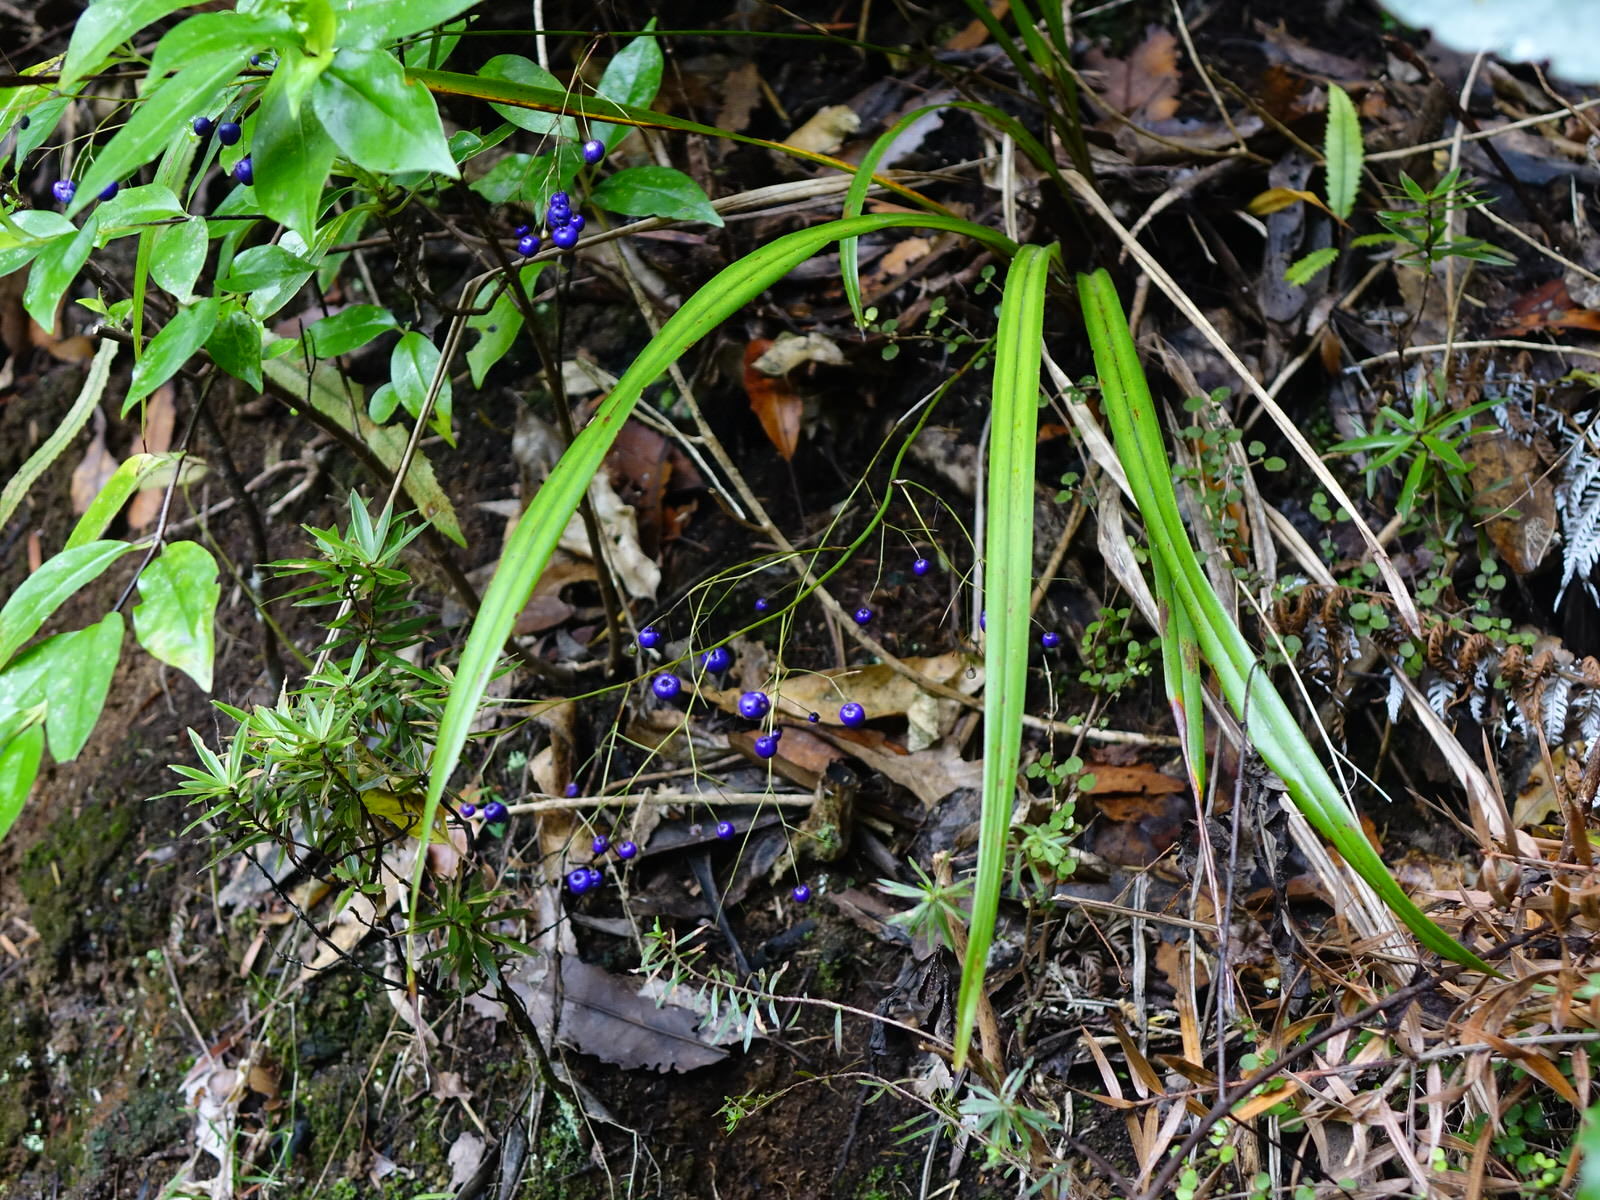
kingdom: Plantae
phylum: Tracheophyta
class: Liliopsida
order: Asparagales
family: Asphodelaceae
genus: Dianella
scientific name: Dianella nigra
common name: New zealand-blueberry
